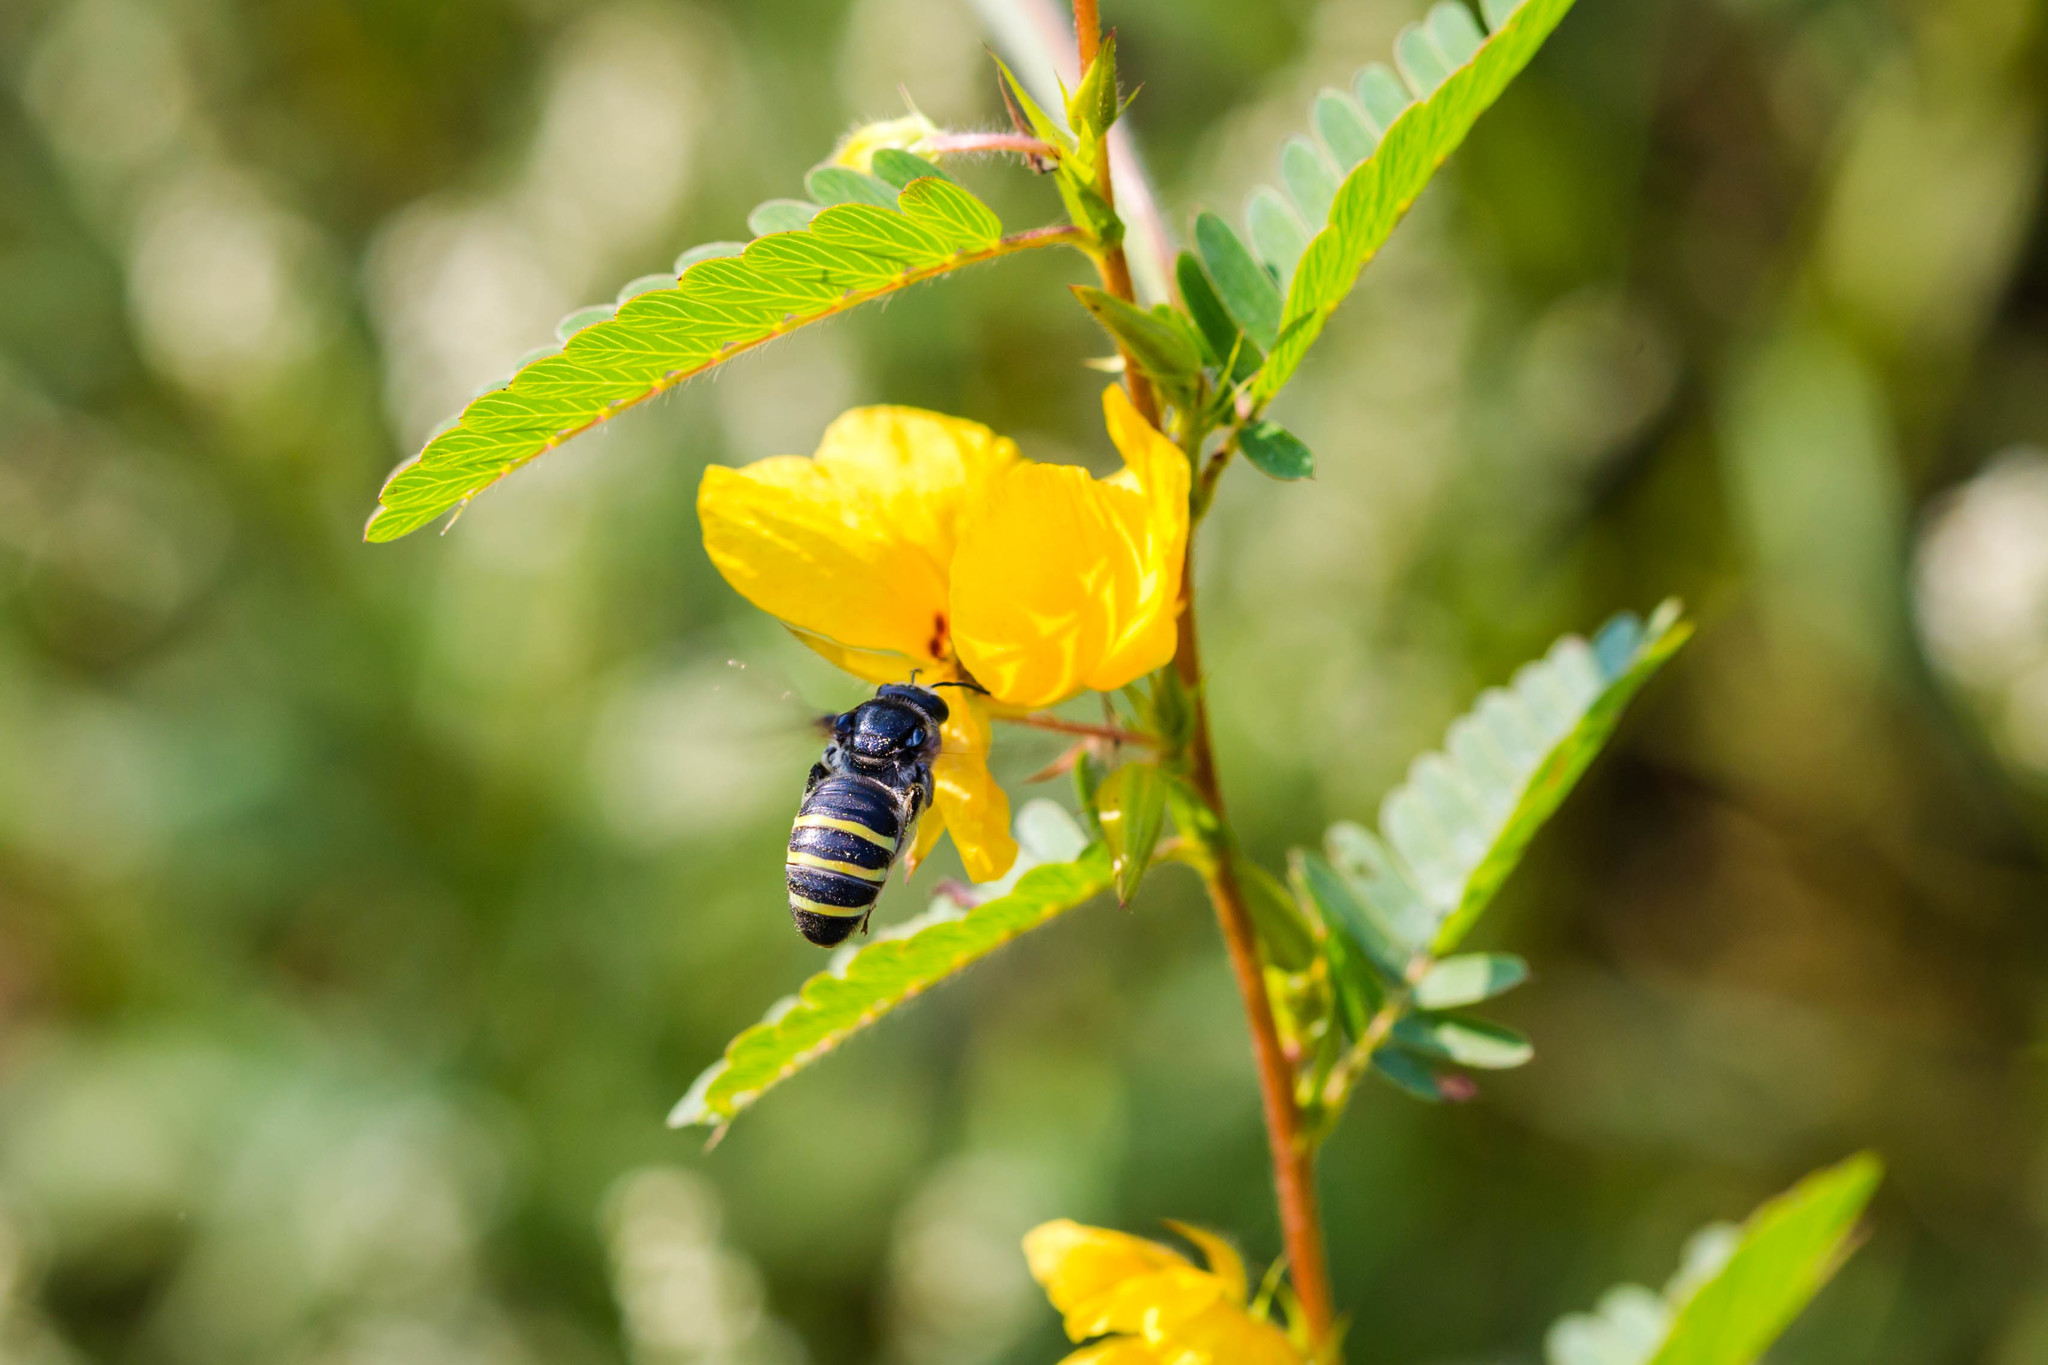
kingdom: Animalia
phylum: Arthropoda
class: Insecta
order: Hymenoptera
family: Halictidae
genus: Nomia
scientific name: Nomia nortoni
